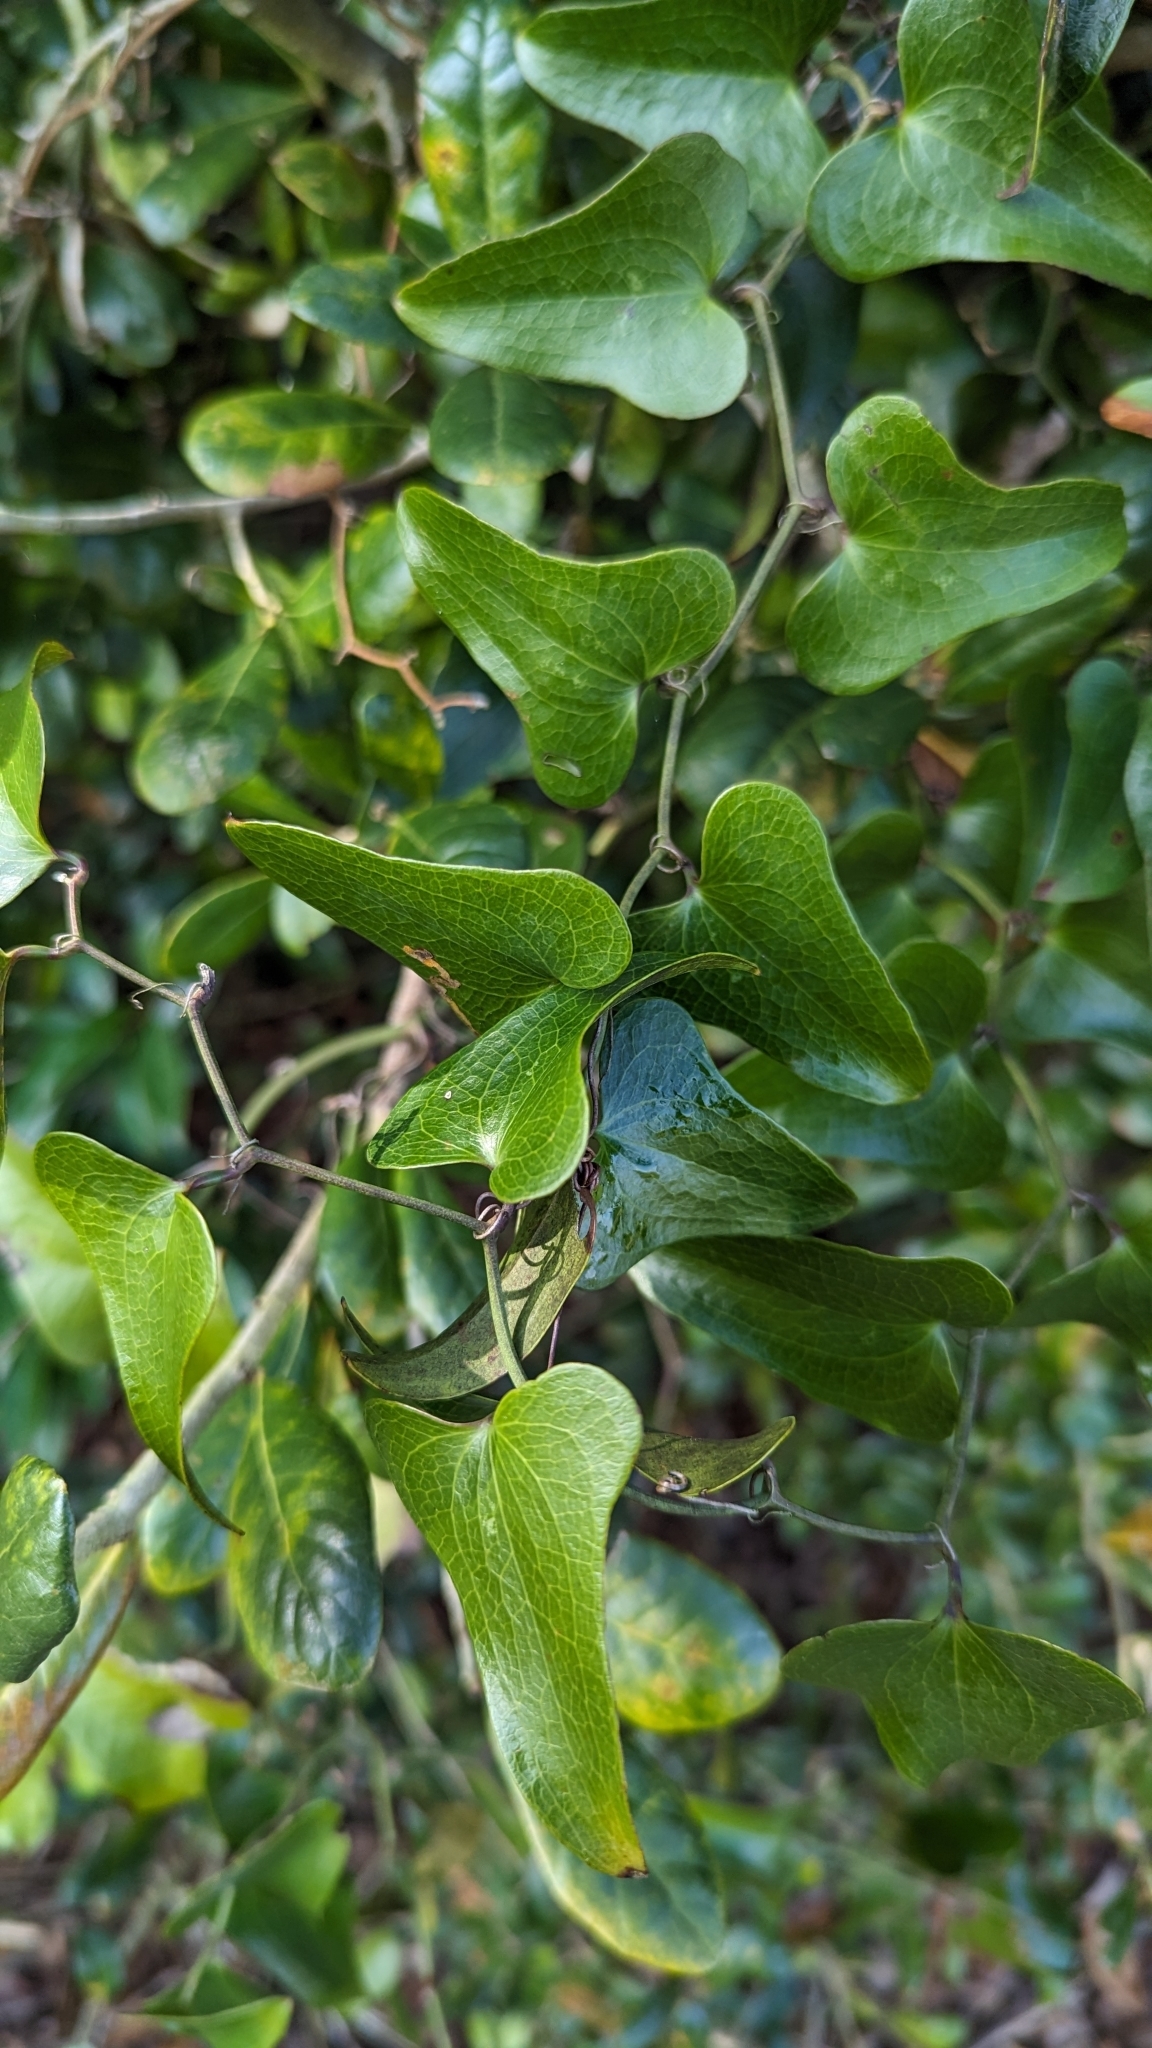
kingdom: Plantae
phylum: Tracheophyta
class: Liliopsida
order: Liliales
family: Smilacaceae
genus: Smilax
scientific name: Smilax bona-nox
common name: Catbrier
